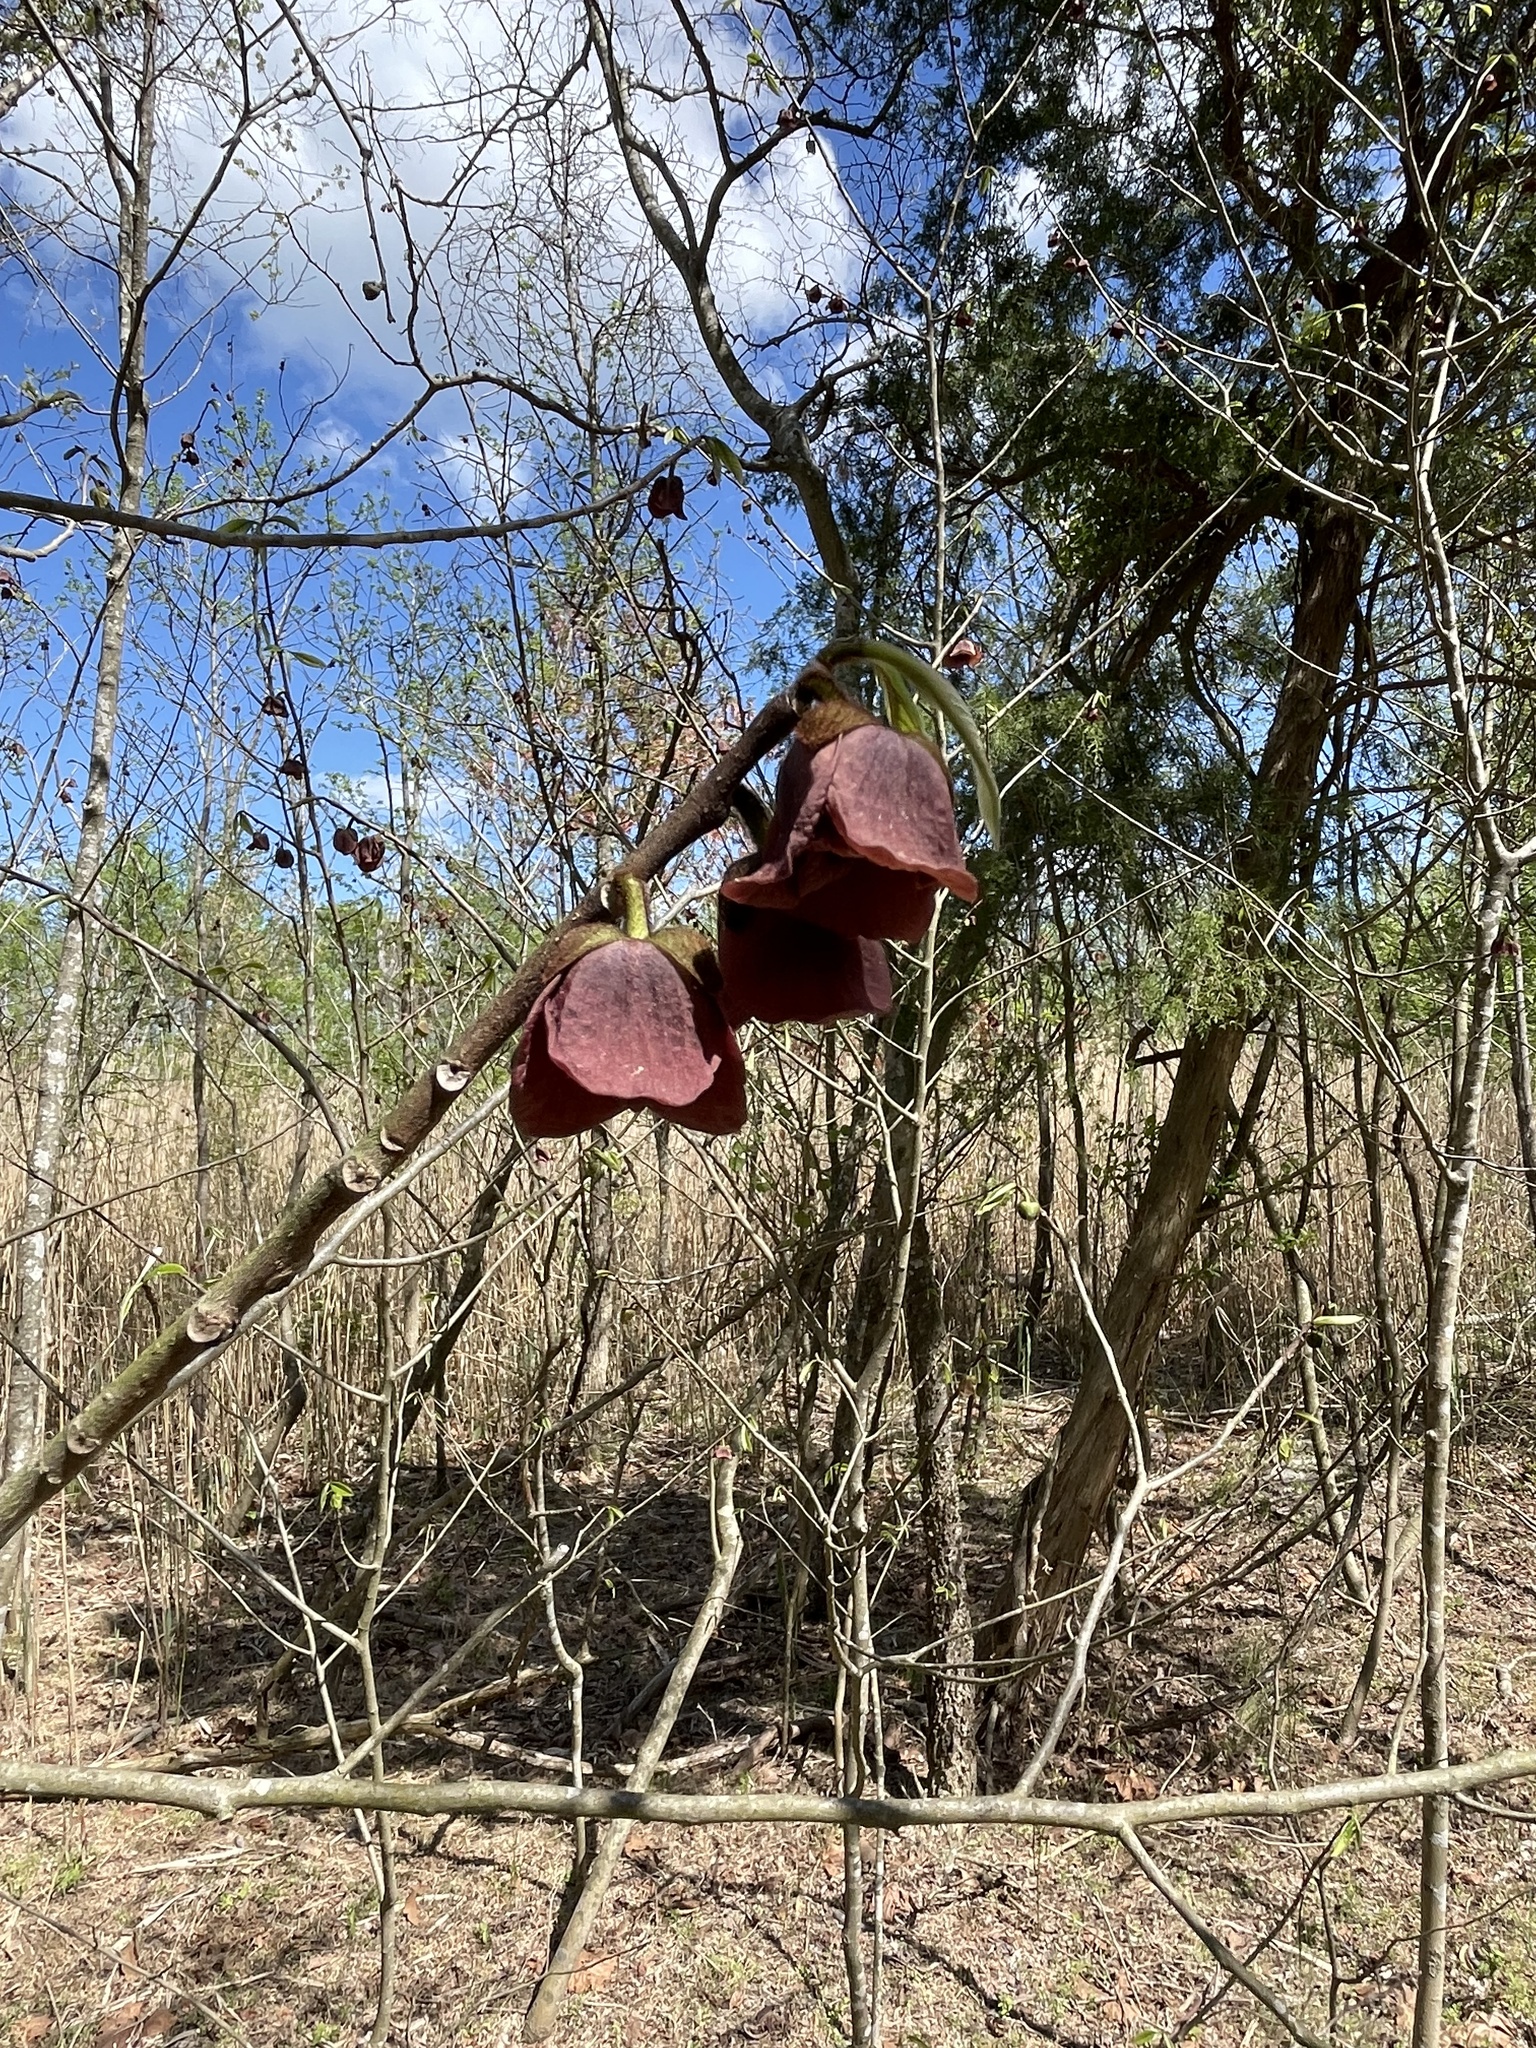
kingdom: Plantae
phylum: Tracheophyta
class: Magnoliopsida
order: Magnoliales
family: Annonaceae
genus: Asimina
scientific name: Asimina triloba
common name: Dog-banana
